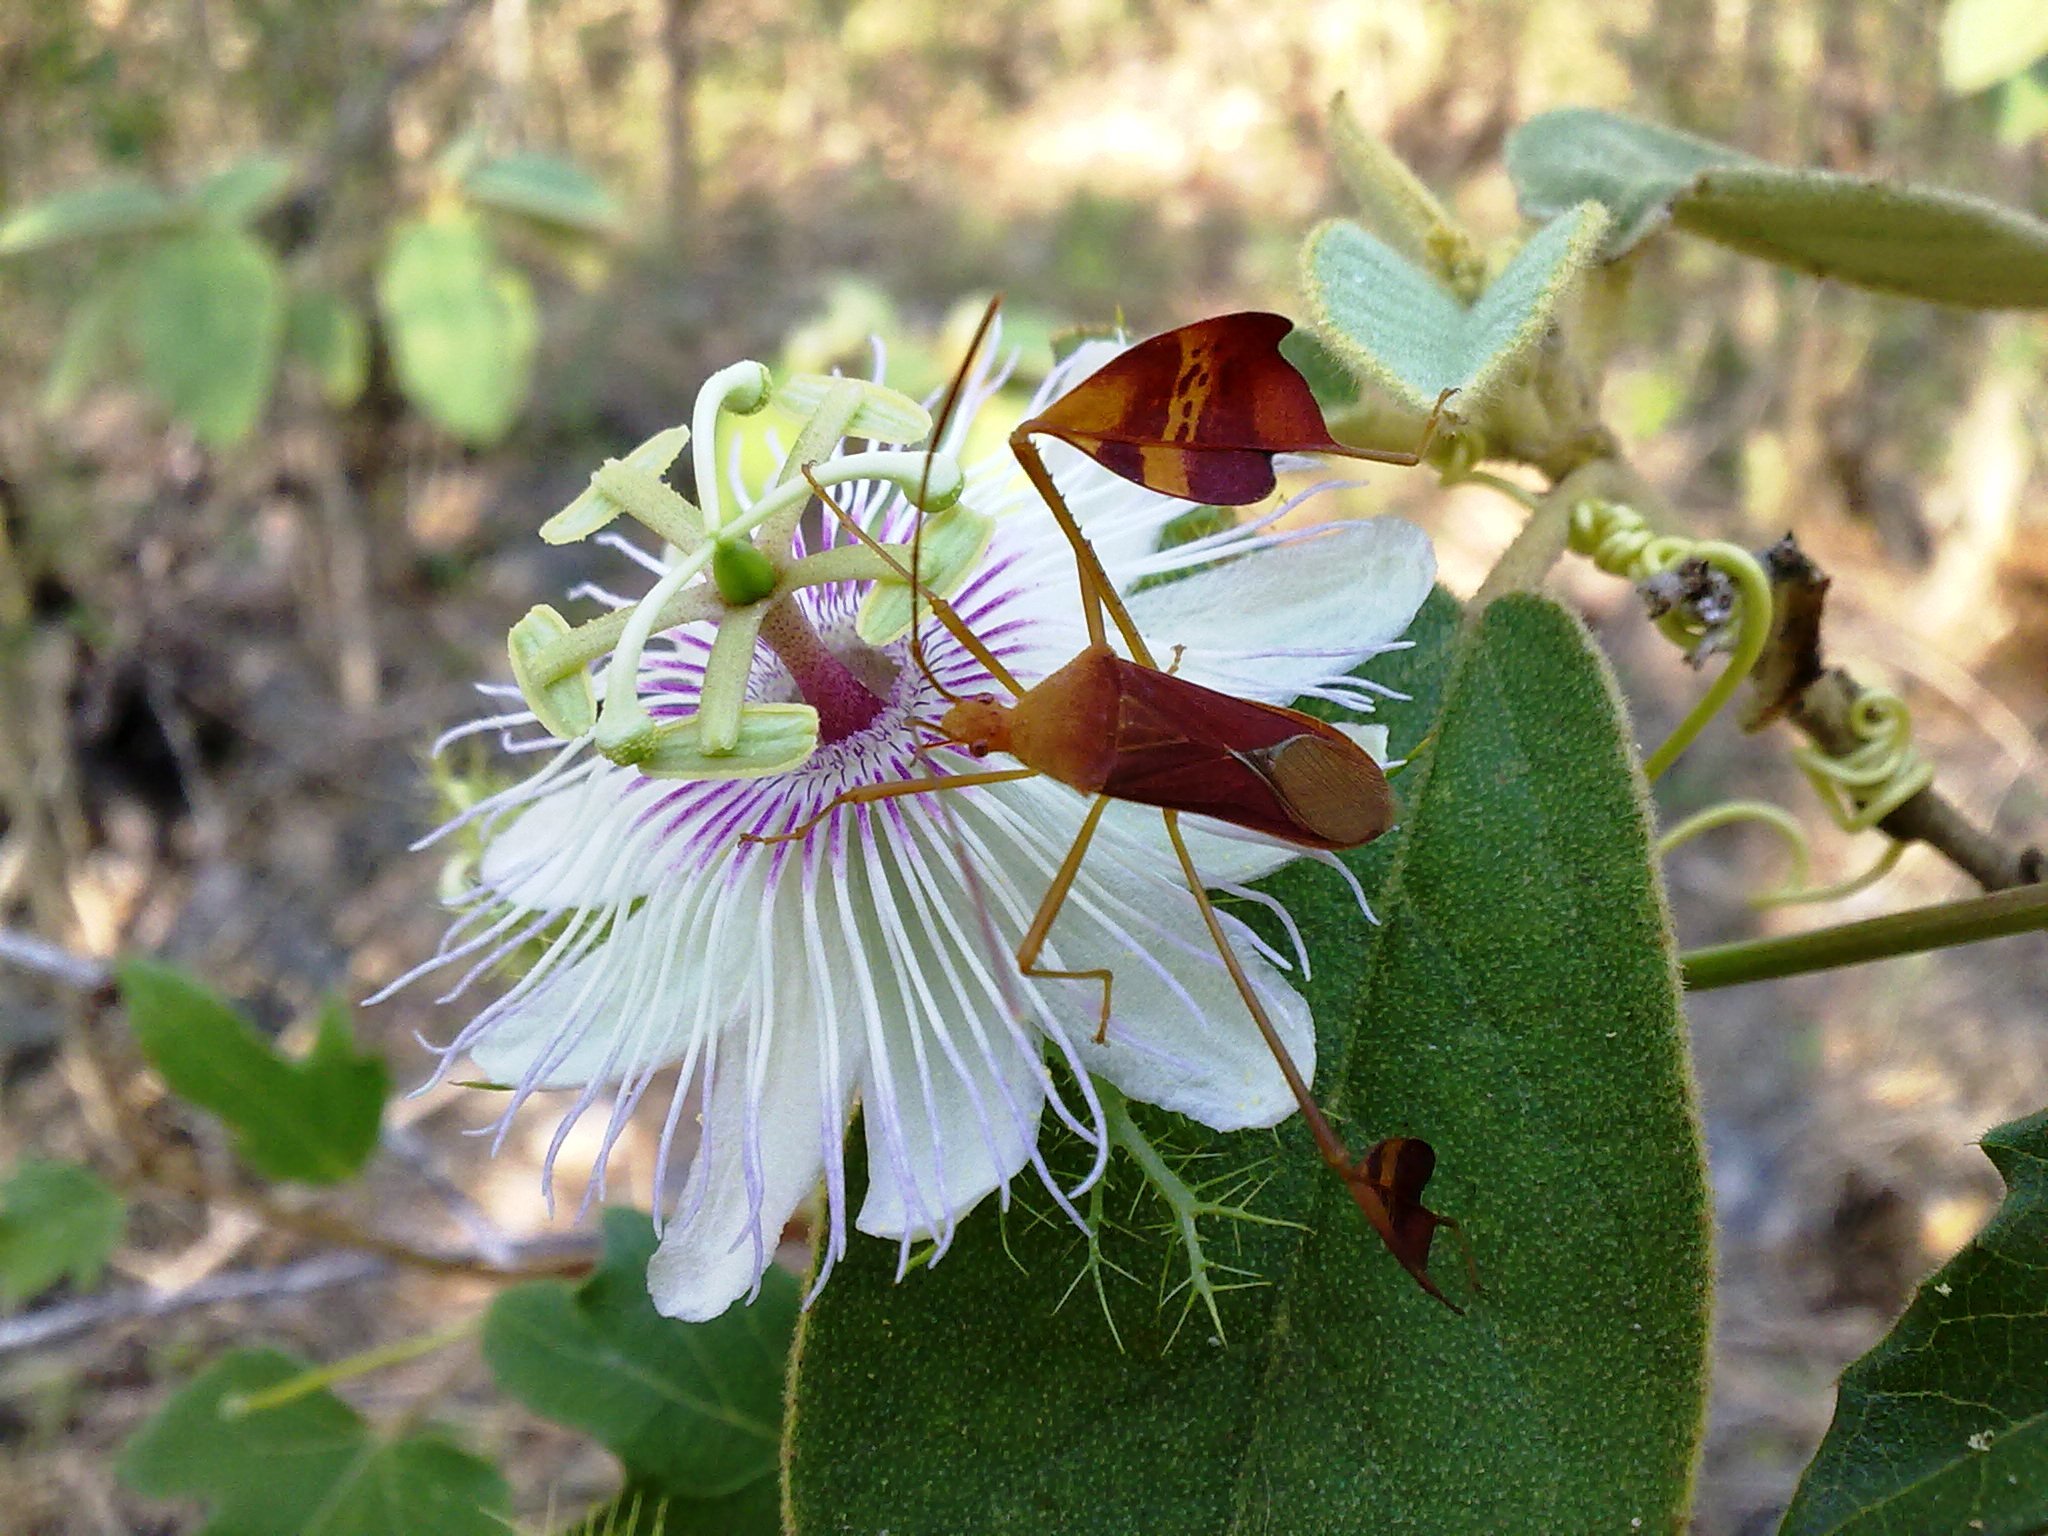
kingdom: Animalia
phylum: Arthropoda
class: Insecta
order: Hemiptera
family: Coreidae
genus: Bitta
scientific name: Bitta
